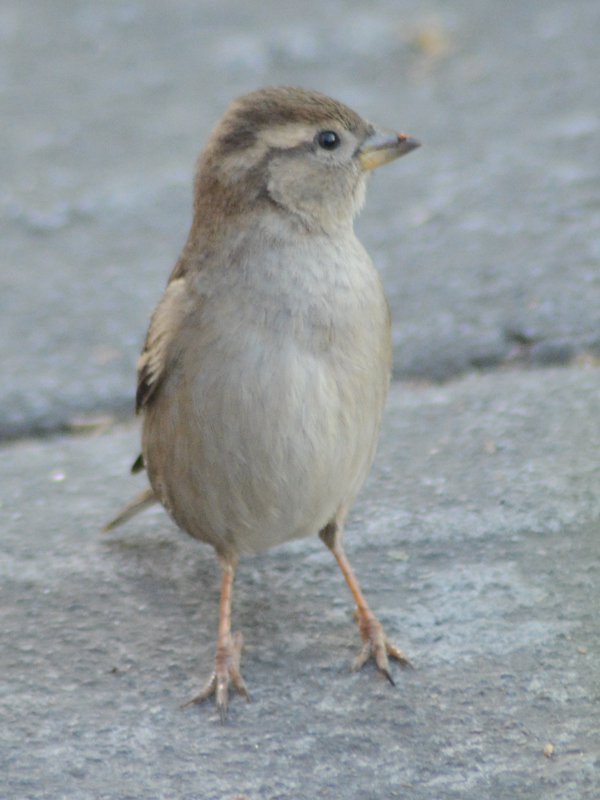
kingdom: Animalia
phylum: Chordata
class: Aves
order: Passeriformes
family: Passeridae
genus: Passer
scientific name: Passer domesticus
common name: House sparrow
